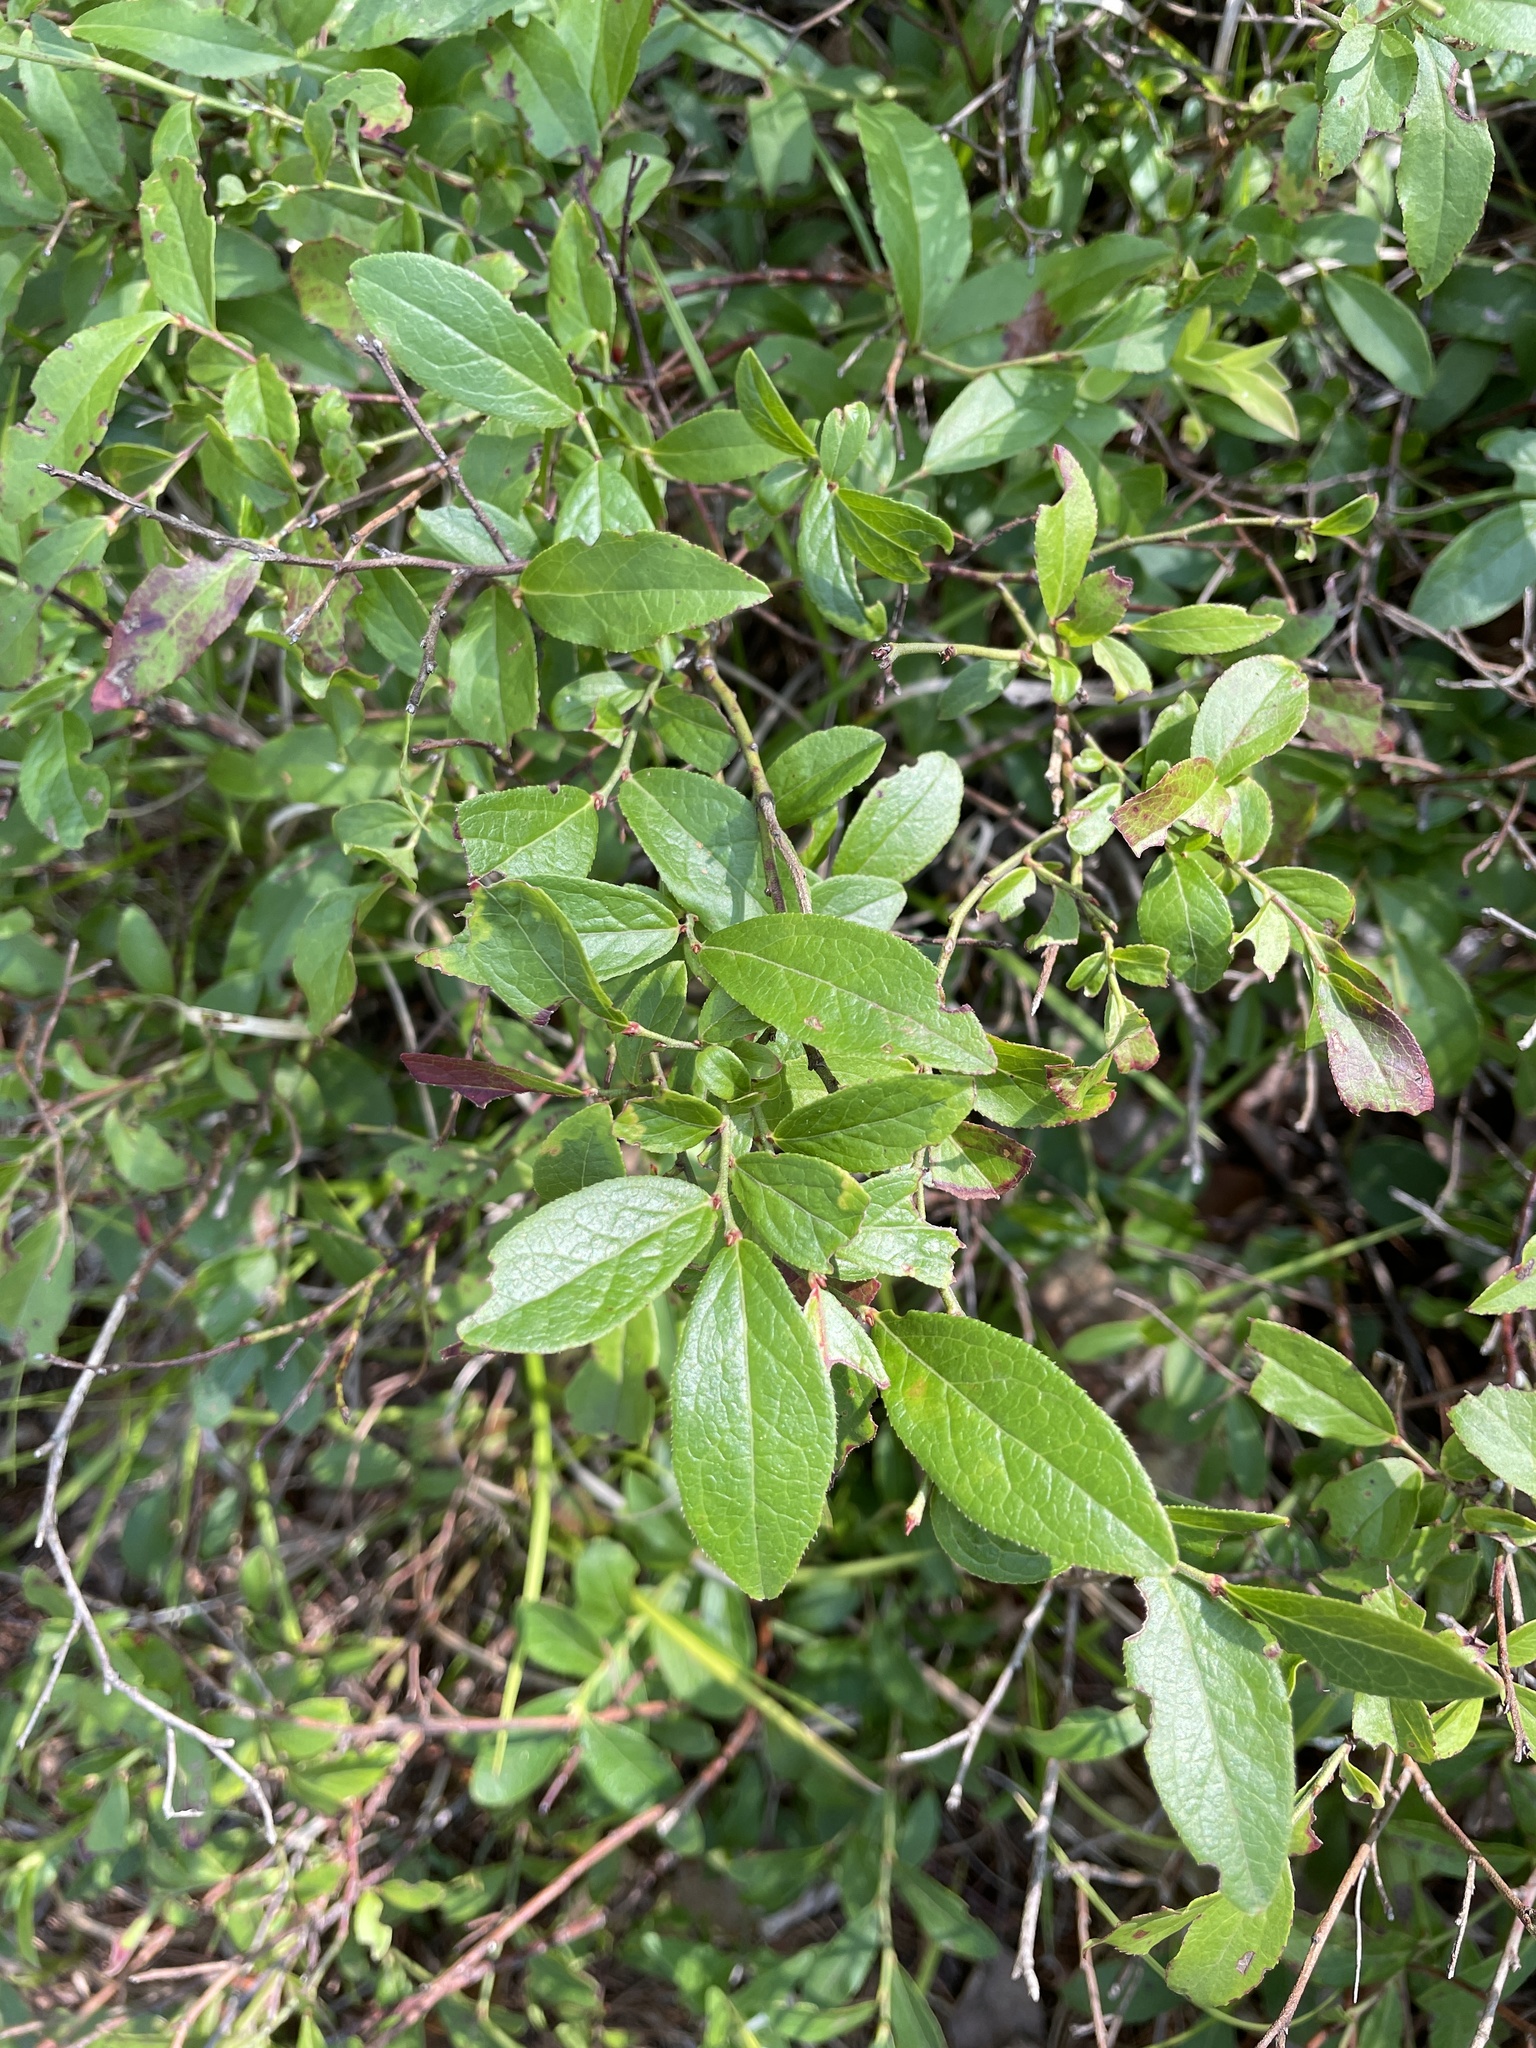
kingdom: Plantae
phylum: Tracheophyta
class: Magnoliopsida
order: Ericales
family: Ericaceae
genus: Vaccinium
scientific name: Vaccinium angustifolium
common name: Early lowbush blueberry
